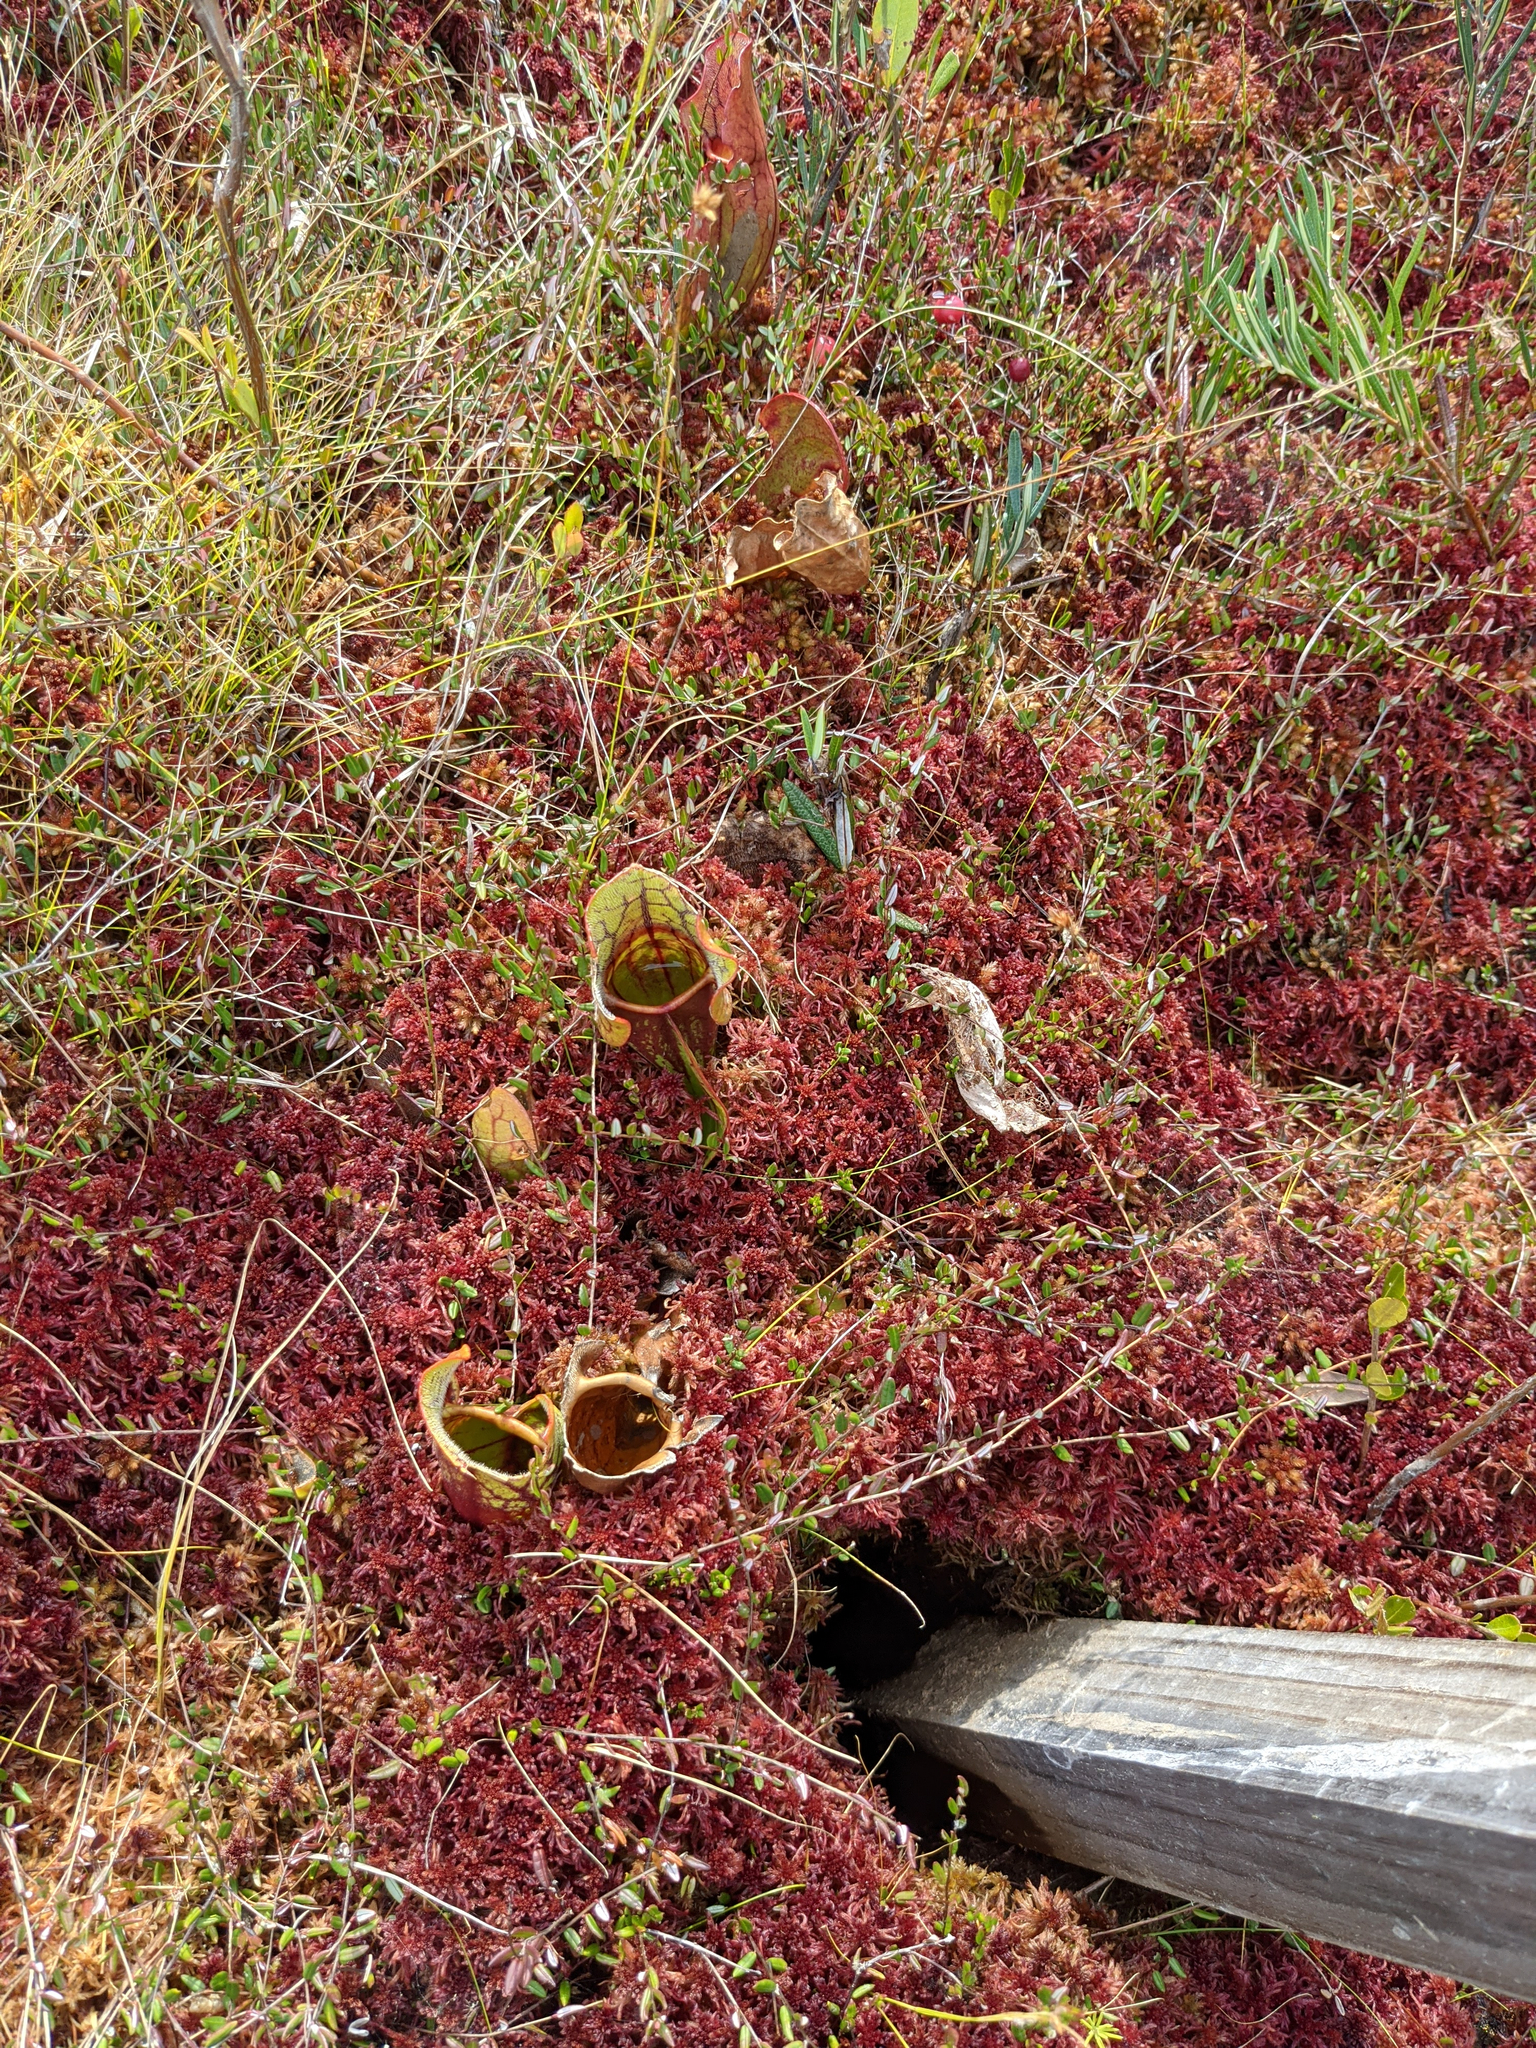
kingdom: Plantae
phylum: Tracheophyta
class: Magnoliopsida
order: Ericales
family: Sarraceniaceae
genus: Sarracenia
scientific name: Sarracenia purpurea
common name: Pitcherplant
